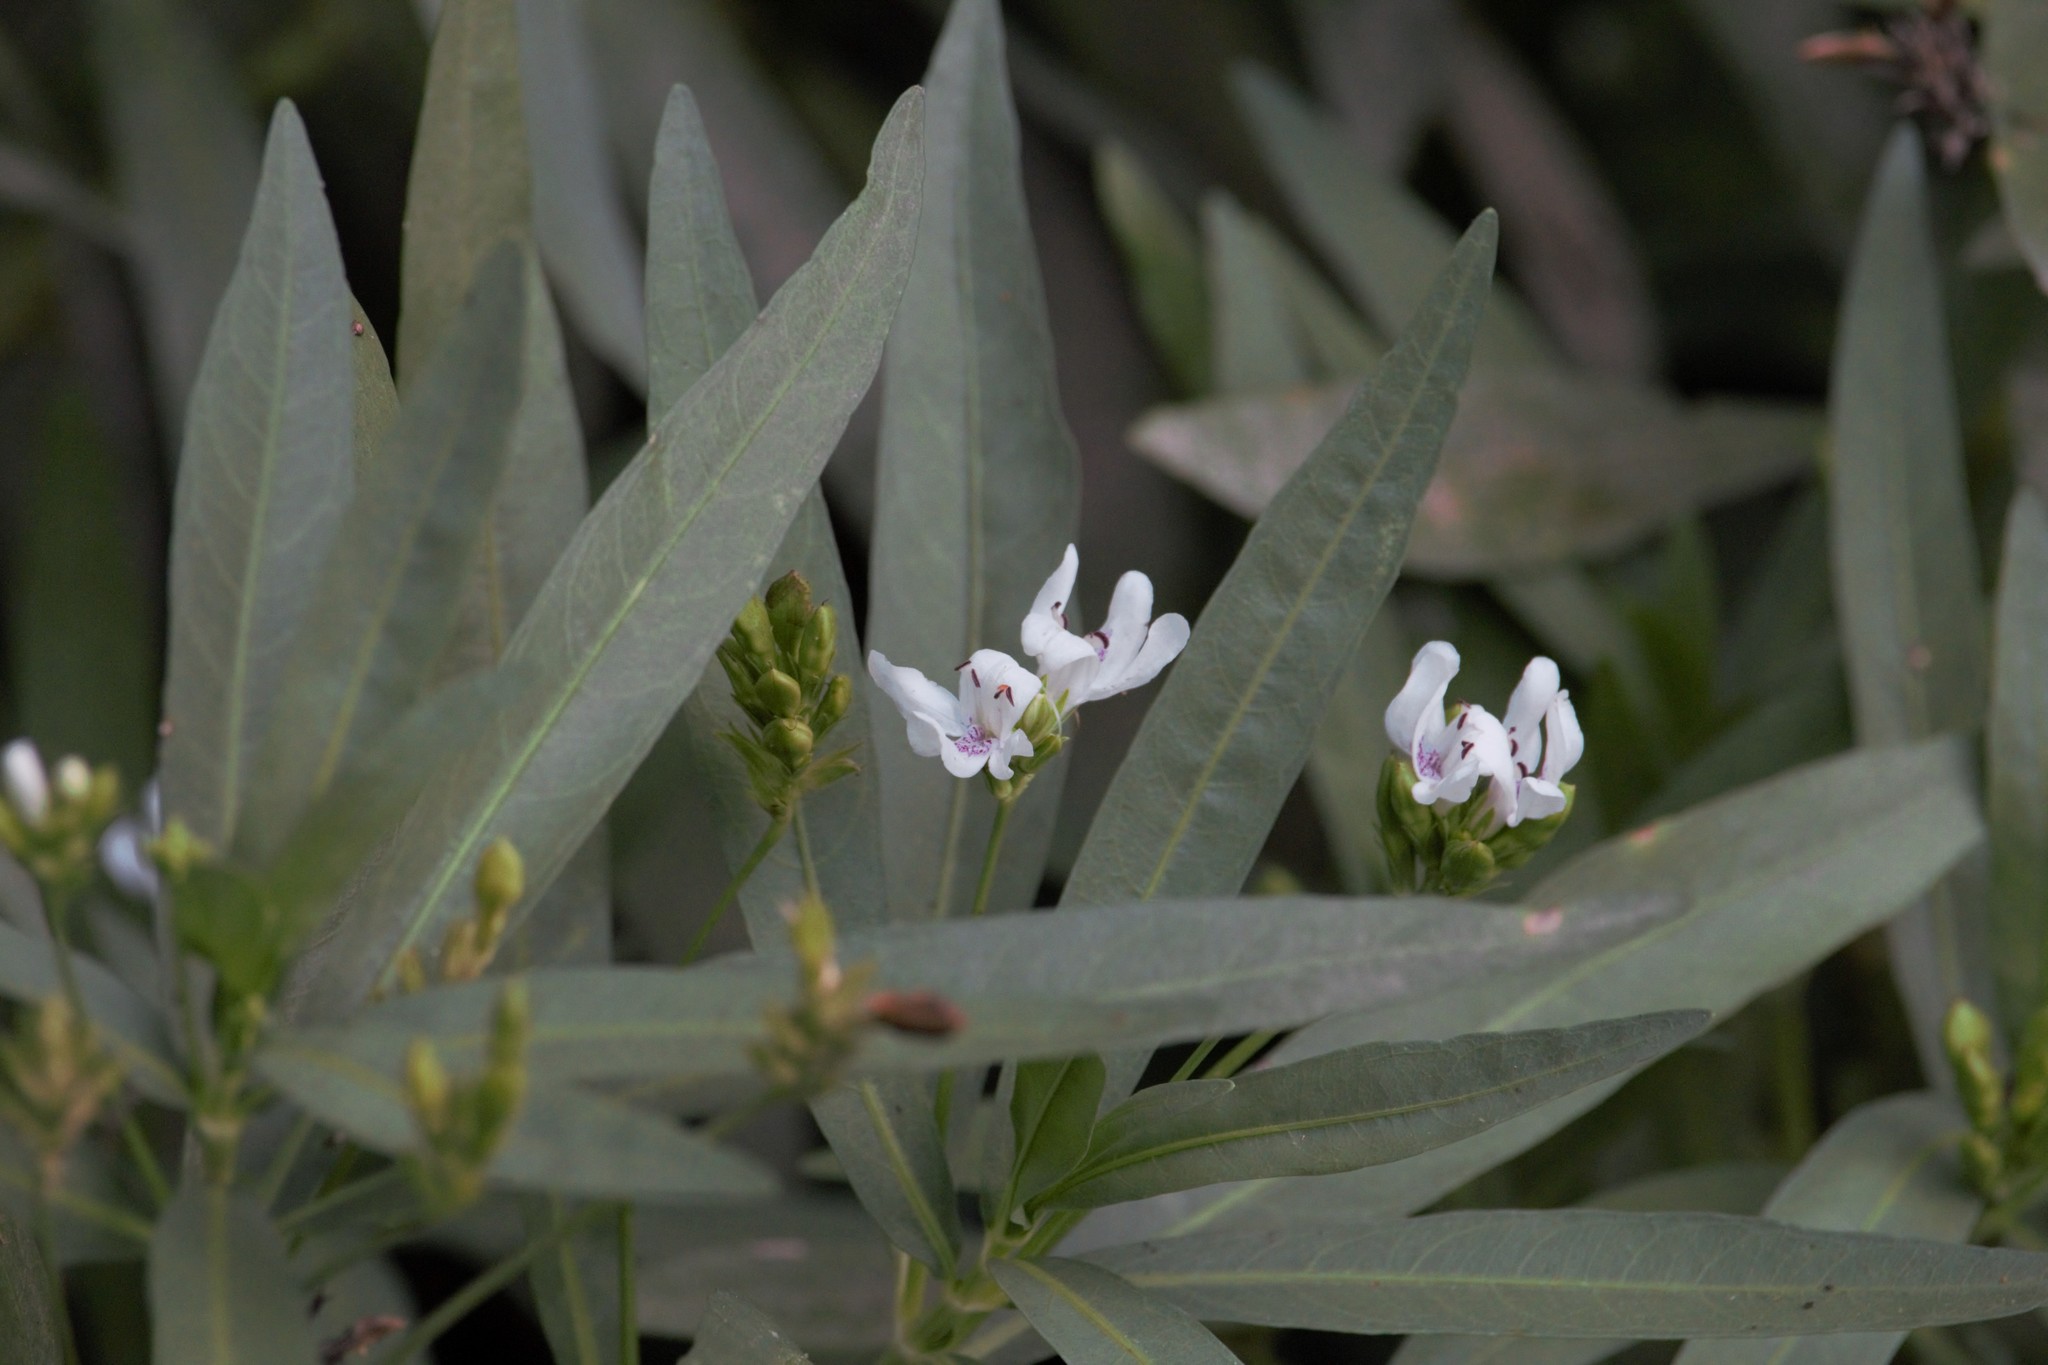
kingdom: Plantae
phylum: Tracheophyta
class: Magnoliopsida
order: Lamiales
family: Acanthaceae
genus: Dianthera
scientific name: Dianthera americana
